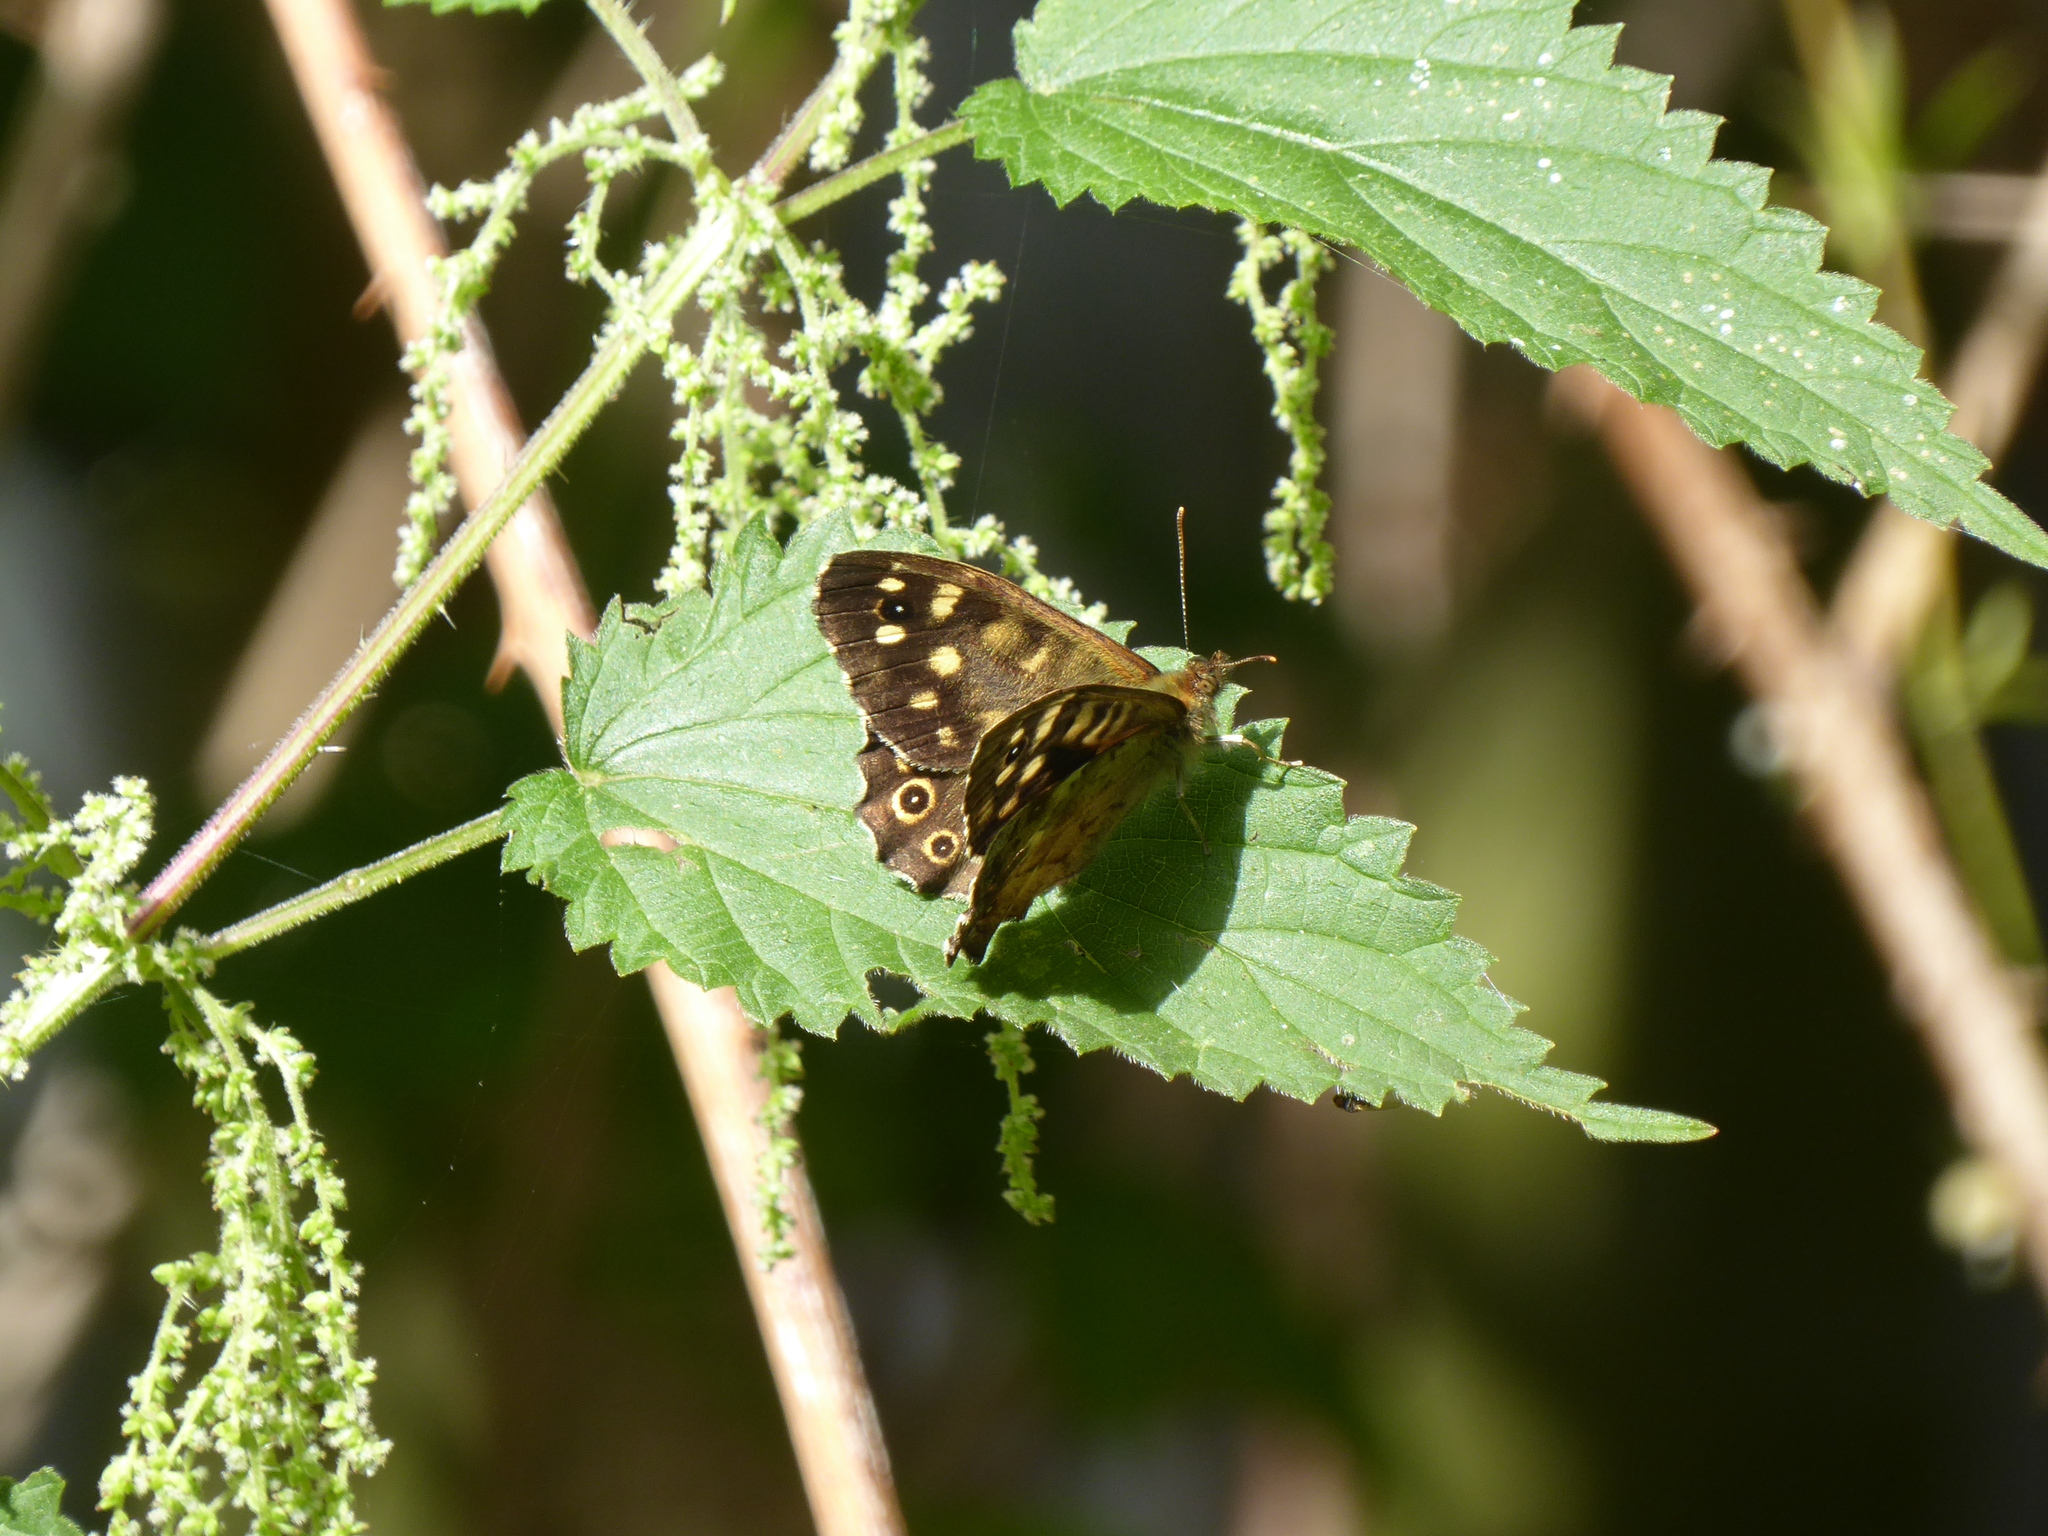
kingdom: Animalia
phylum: Arthropoda
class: Insecta
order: Lepidoptera
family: Nymphalidae
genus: Pararge
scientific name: Pararge aegeria
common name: Speckled wood
